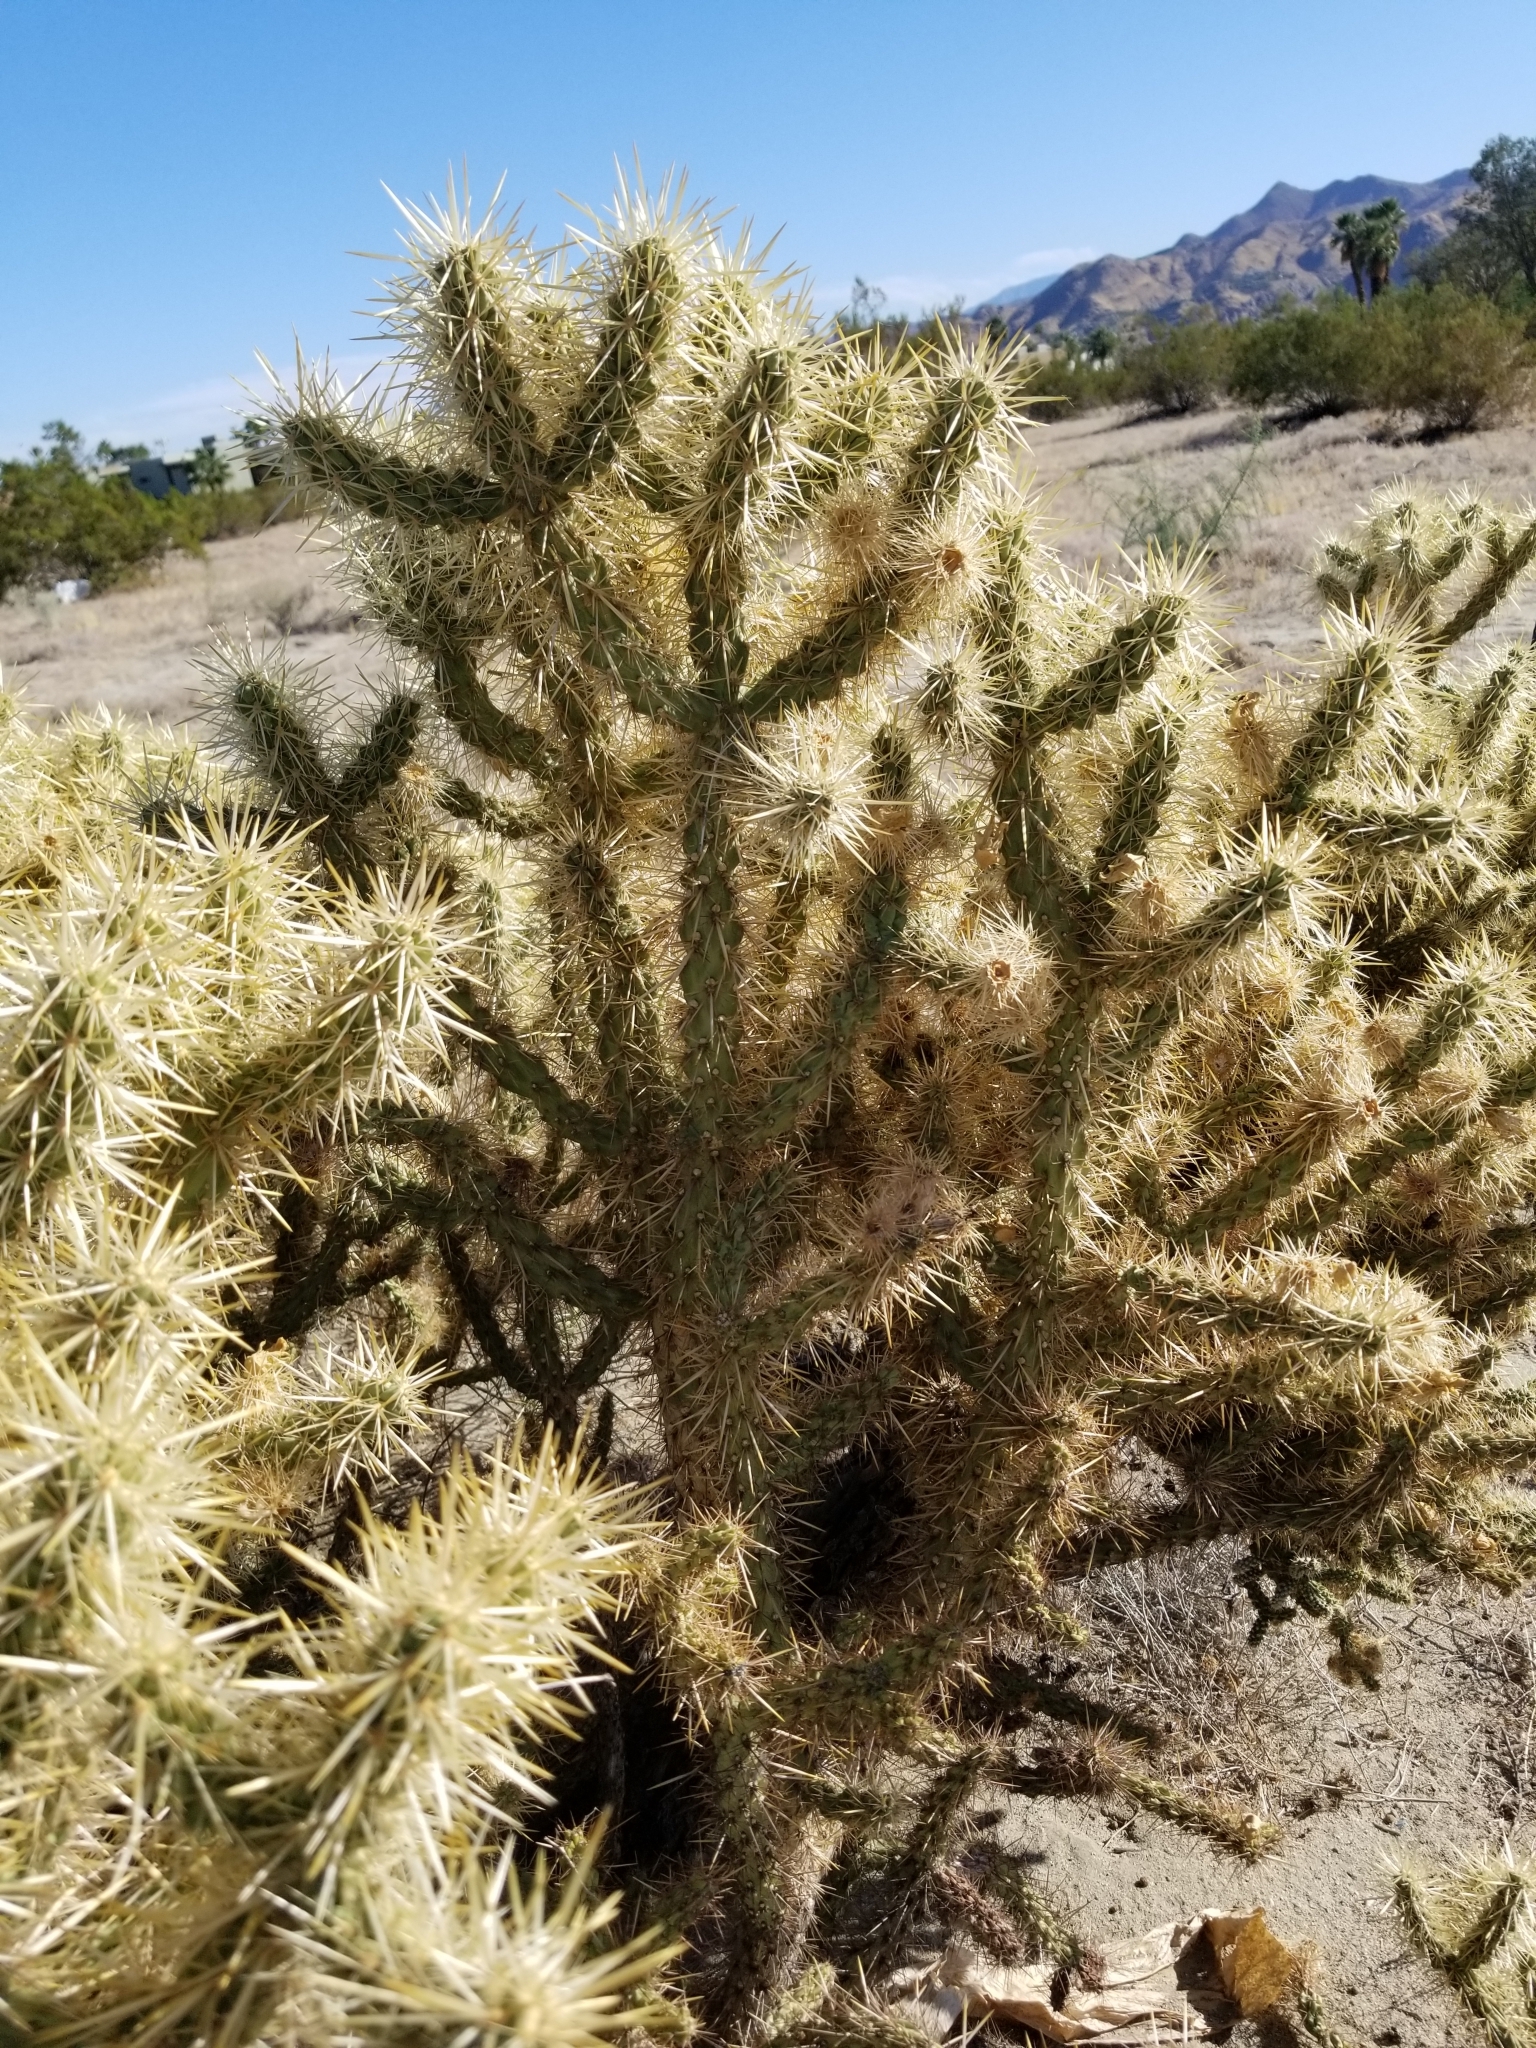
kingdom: Plantae
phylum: Tracheophyta
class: Magnoliopsida
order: Caryophyllales
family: Cactaceae
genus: Cylindropuntia
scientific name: Cylindropuntia echinocarpa
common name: Ground cholla
